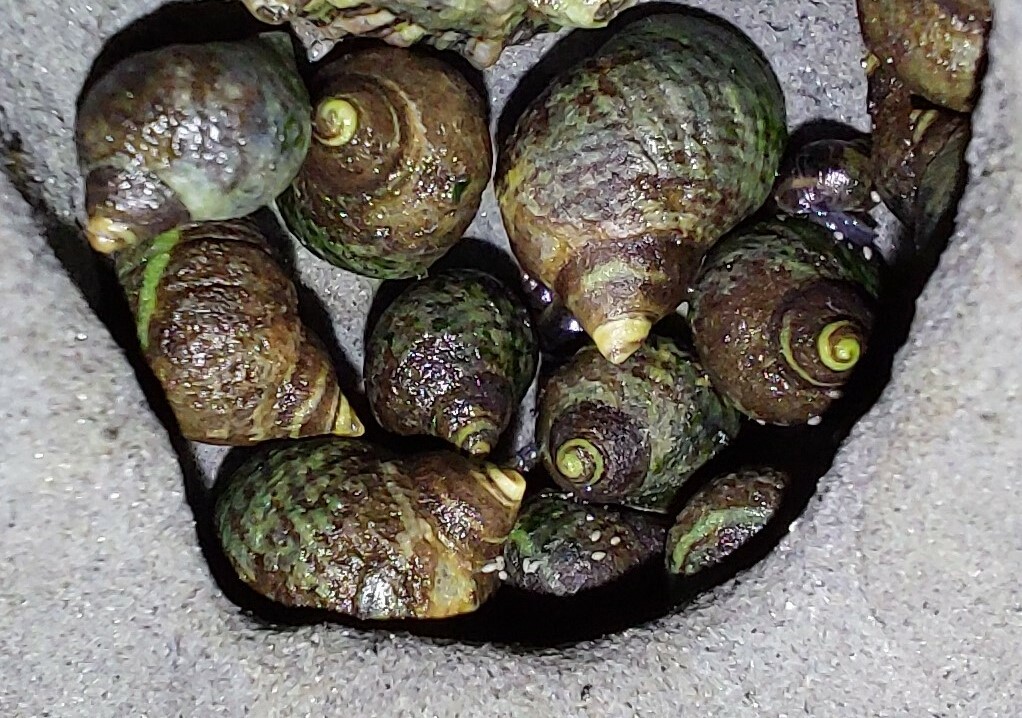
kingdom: Animalia
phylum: Mollusca
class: Gastropoda
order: Littorinimorpha
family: Littorinidae
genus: Austrolittorina
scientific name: Austrolittorina cincta
